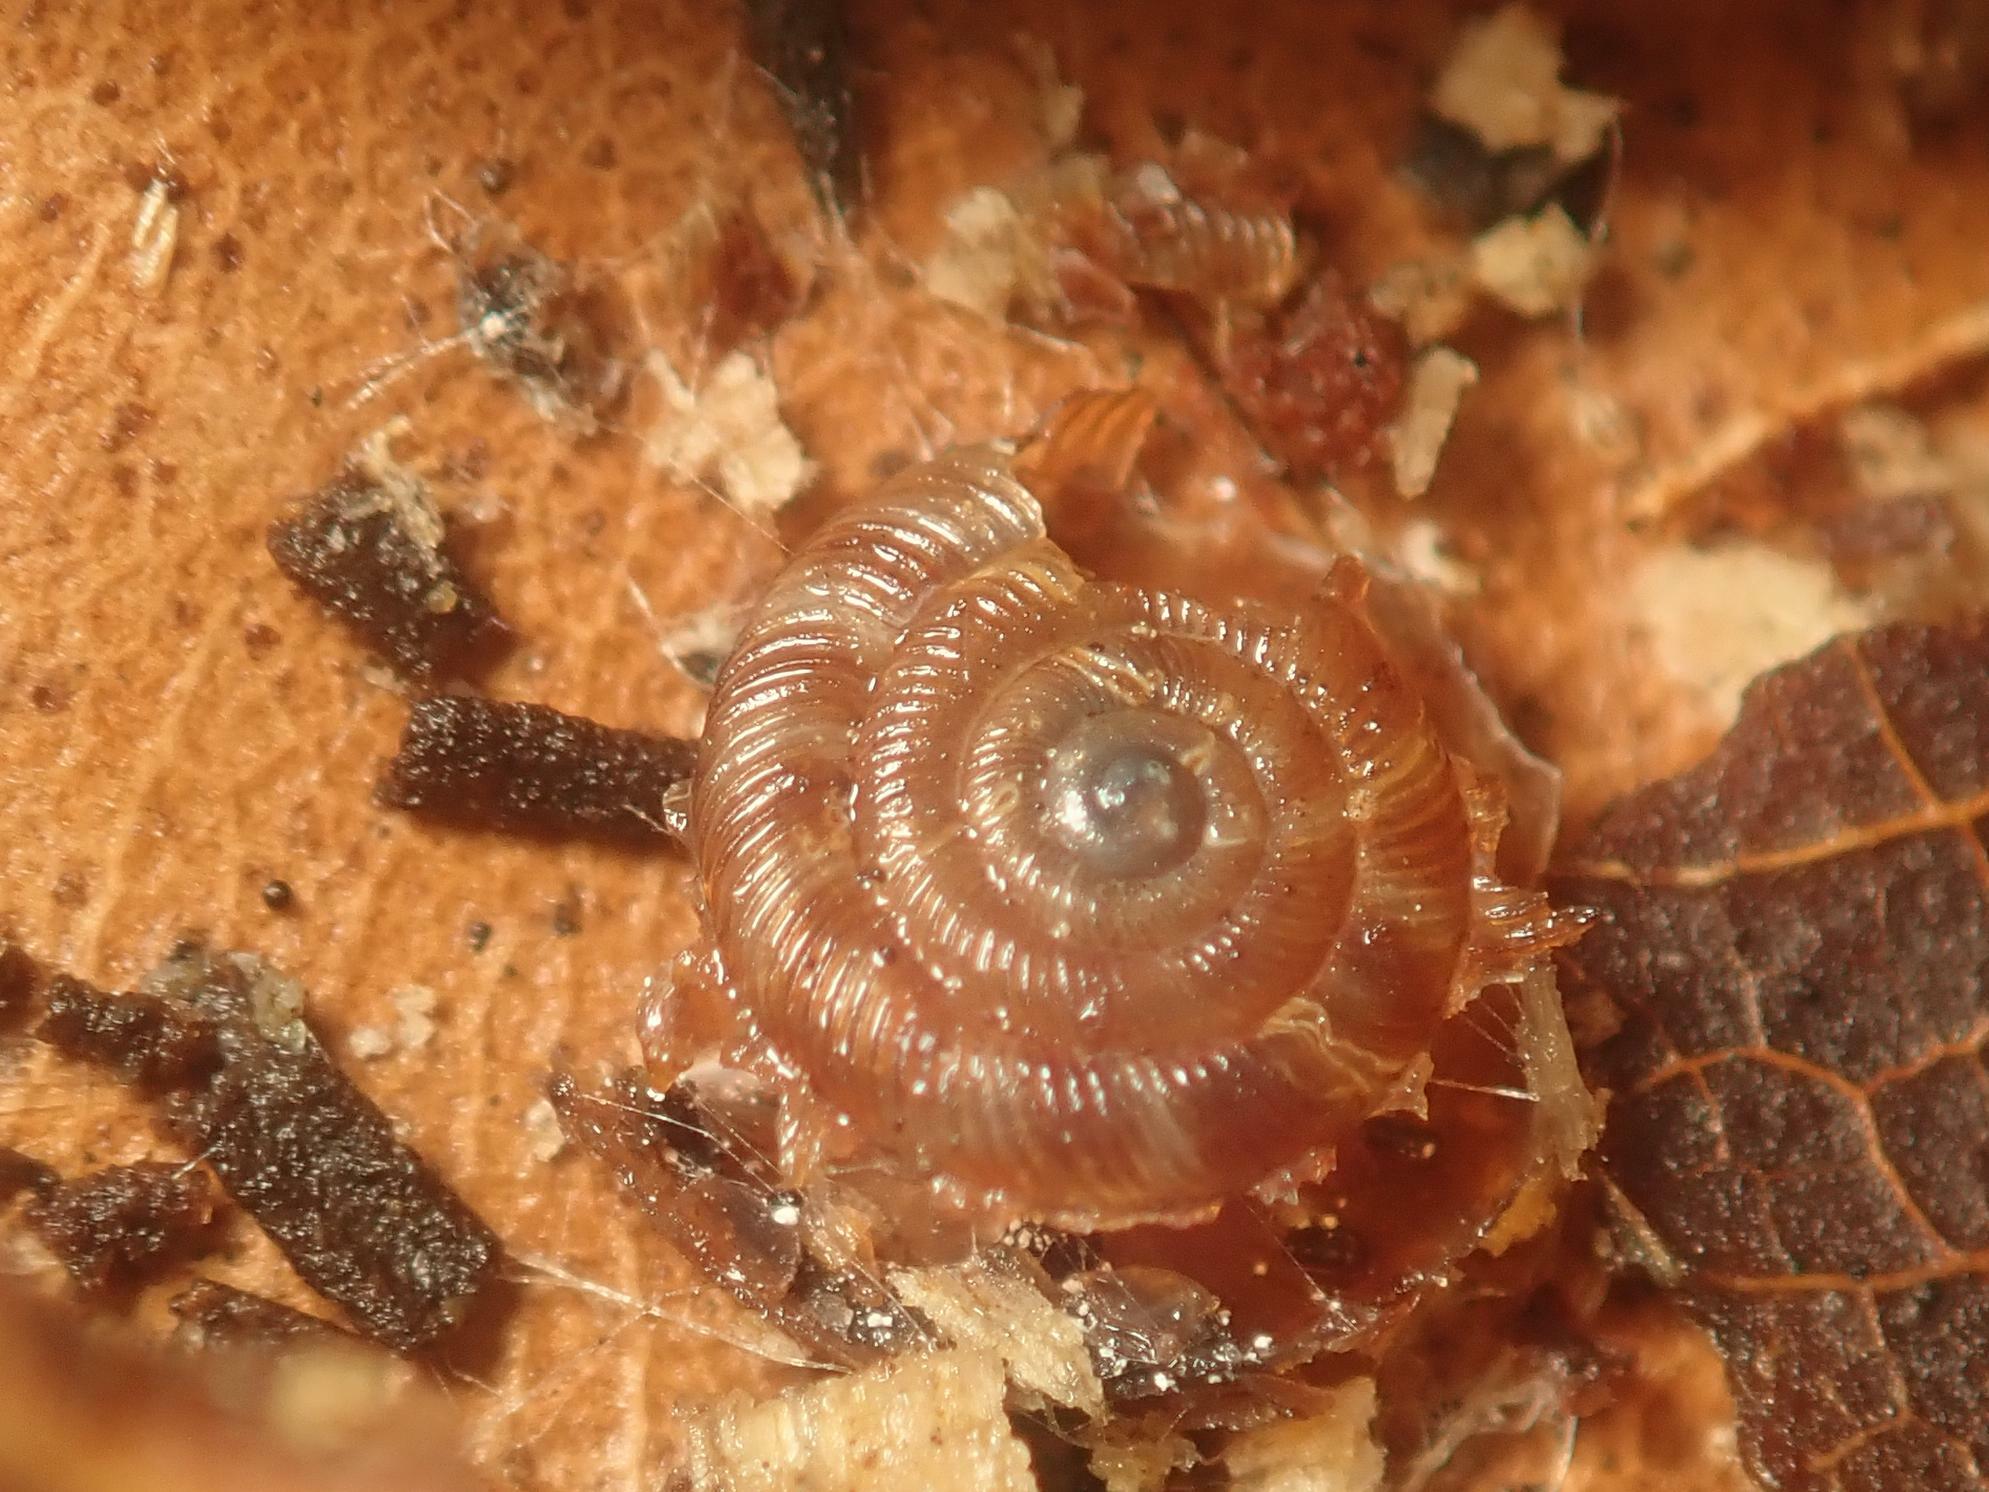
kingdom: Animalia
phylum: Mollusca
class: Gastropoda
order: Stylommatophora
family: Discidae
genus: Discus
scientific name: Discus rotundatus
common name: Rounded snail
